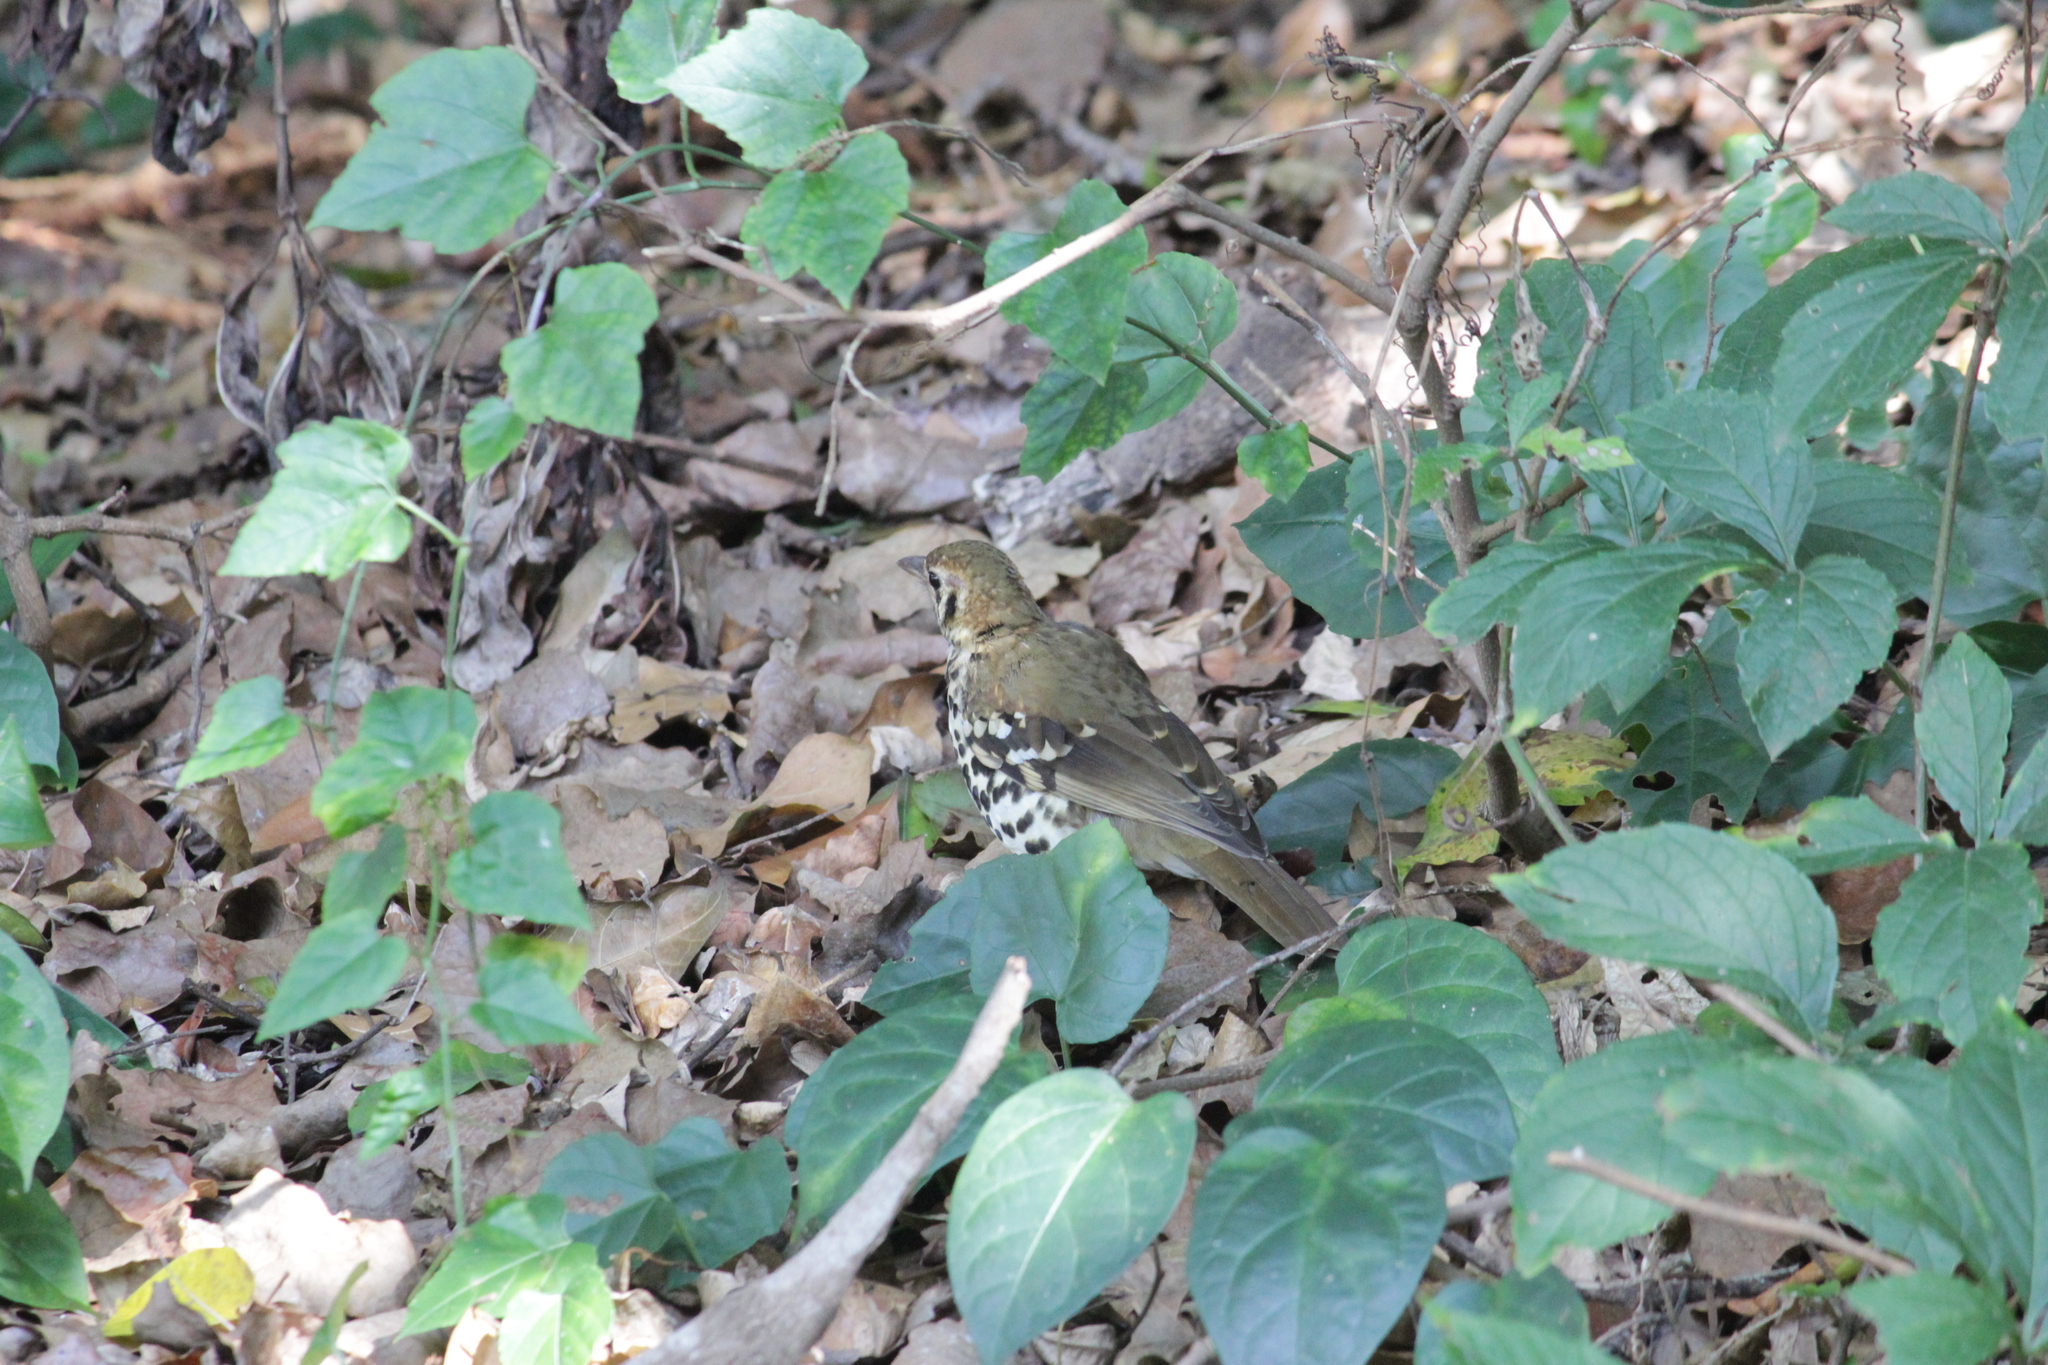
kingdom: Animalia
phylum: Chordata
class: Aves
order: Passeriformes
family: Turdidae
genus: Geokichla
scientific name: Geokichla guttata
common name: Spotted ground-thrush
